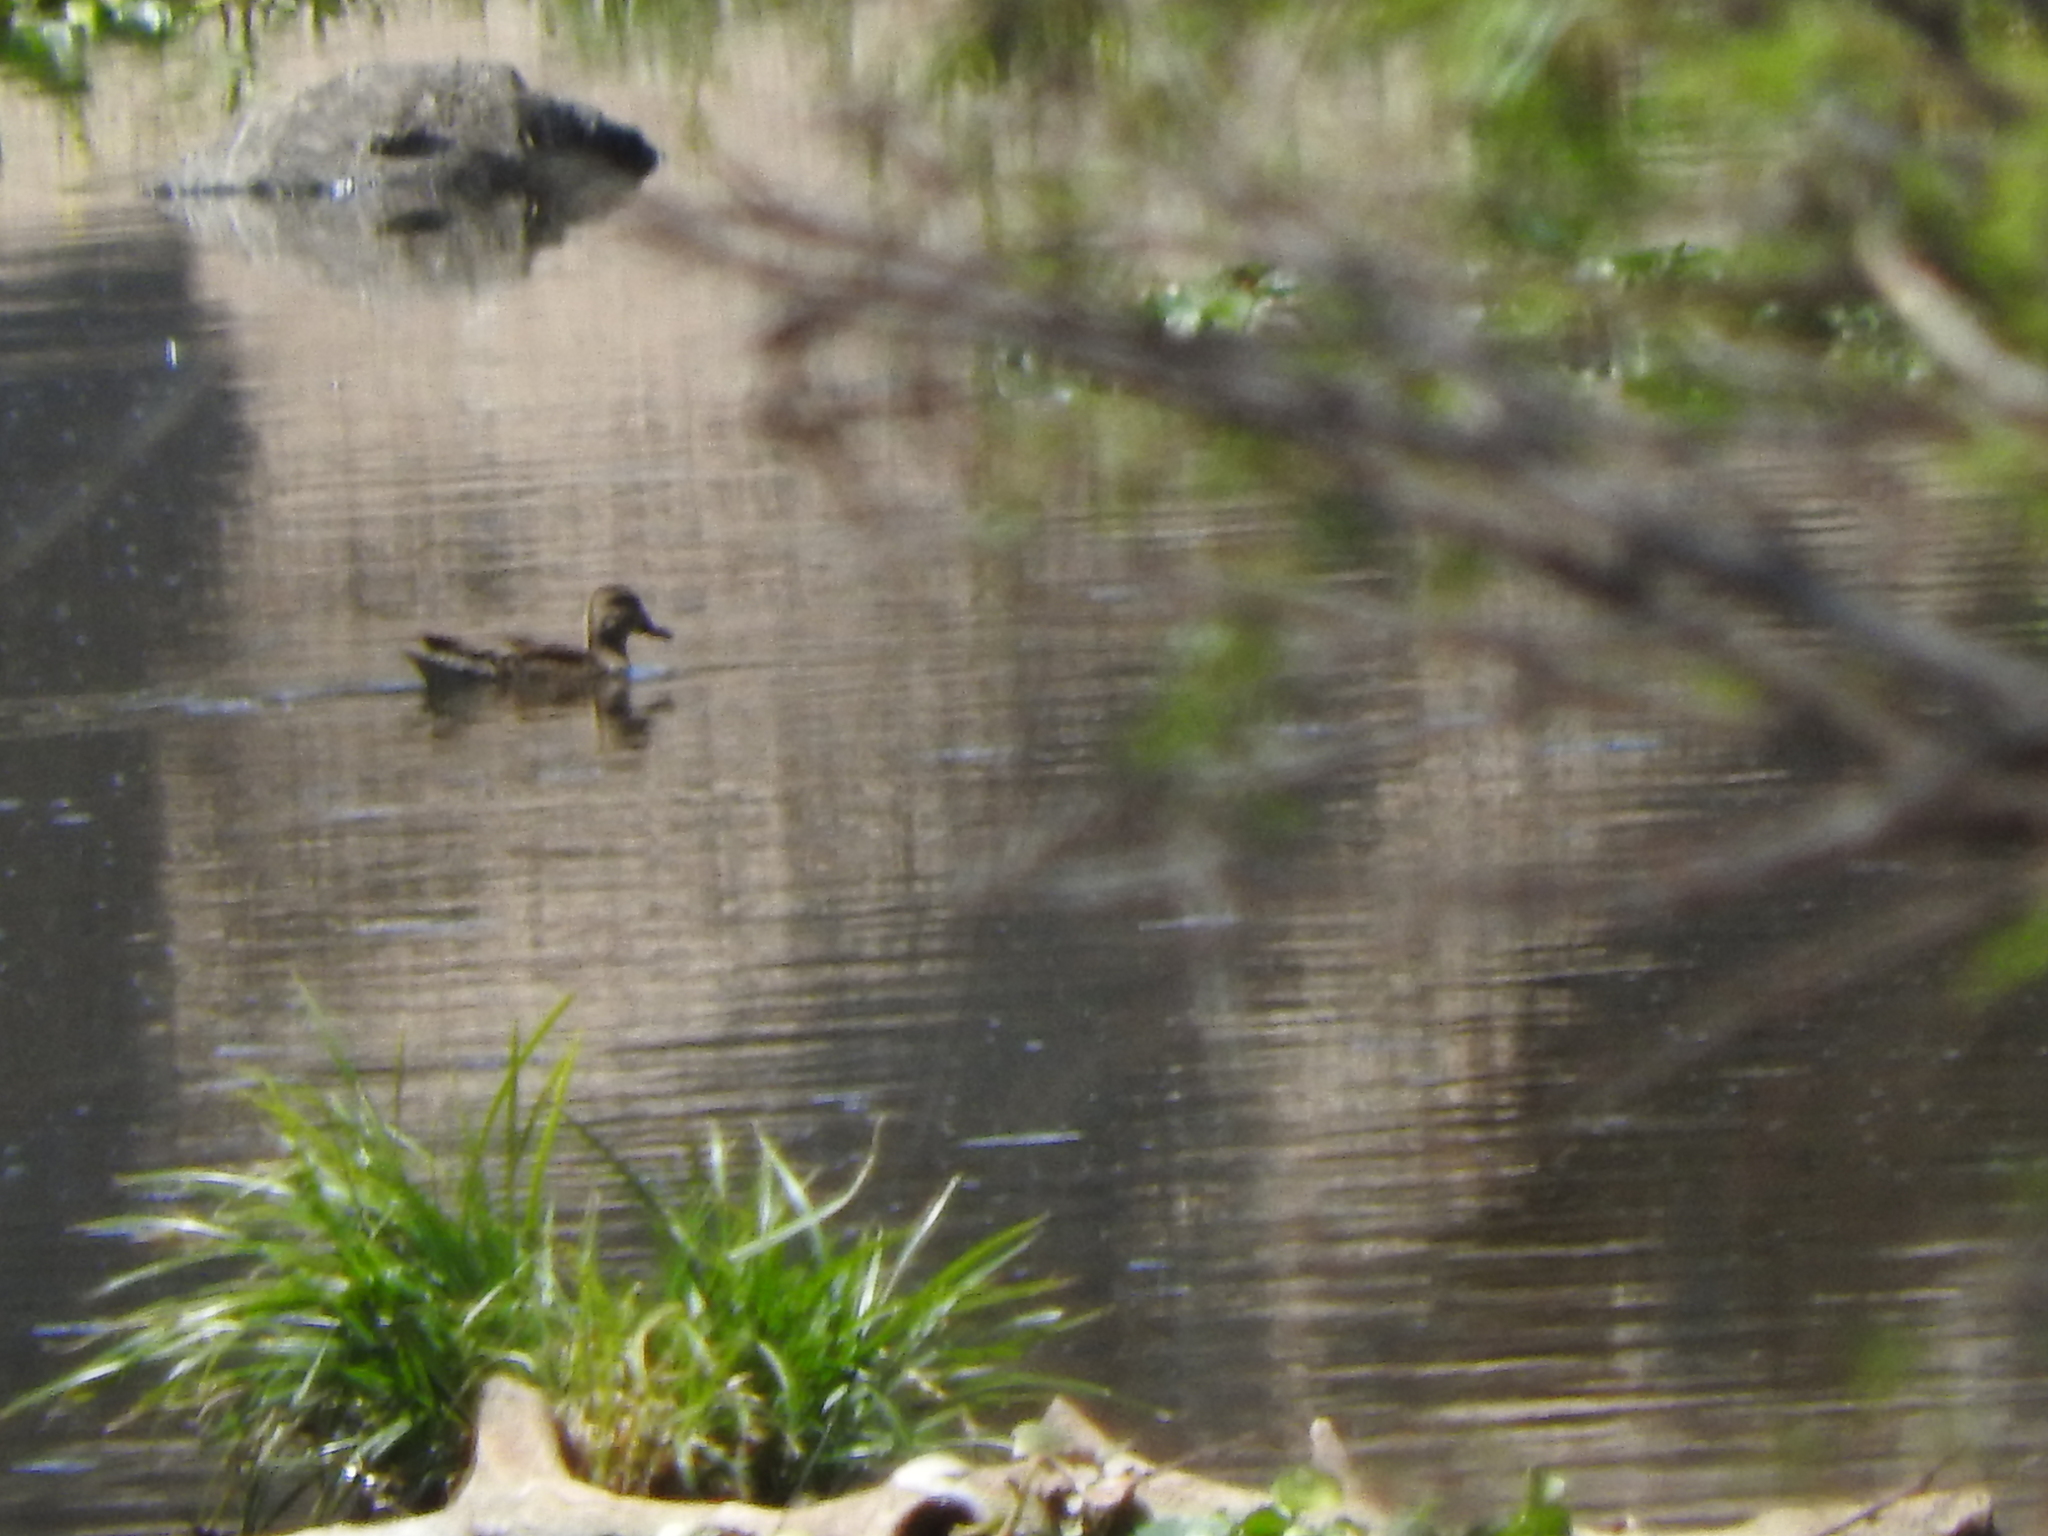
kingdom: Animalia
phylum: Chordata
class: Aves
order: Anseriformes
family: Anatidae
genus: Spatula
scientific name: Spatula discors
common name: Blue-winged teal
